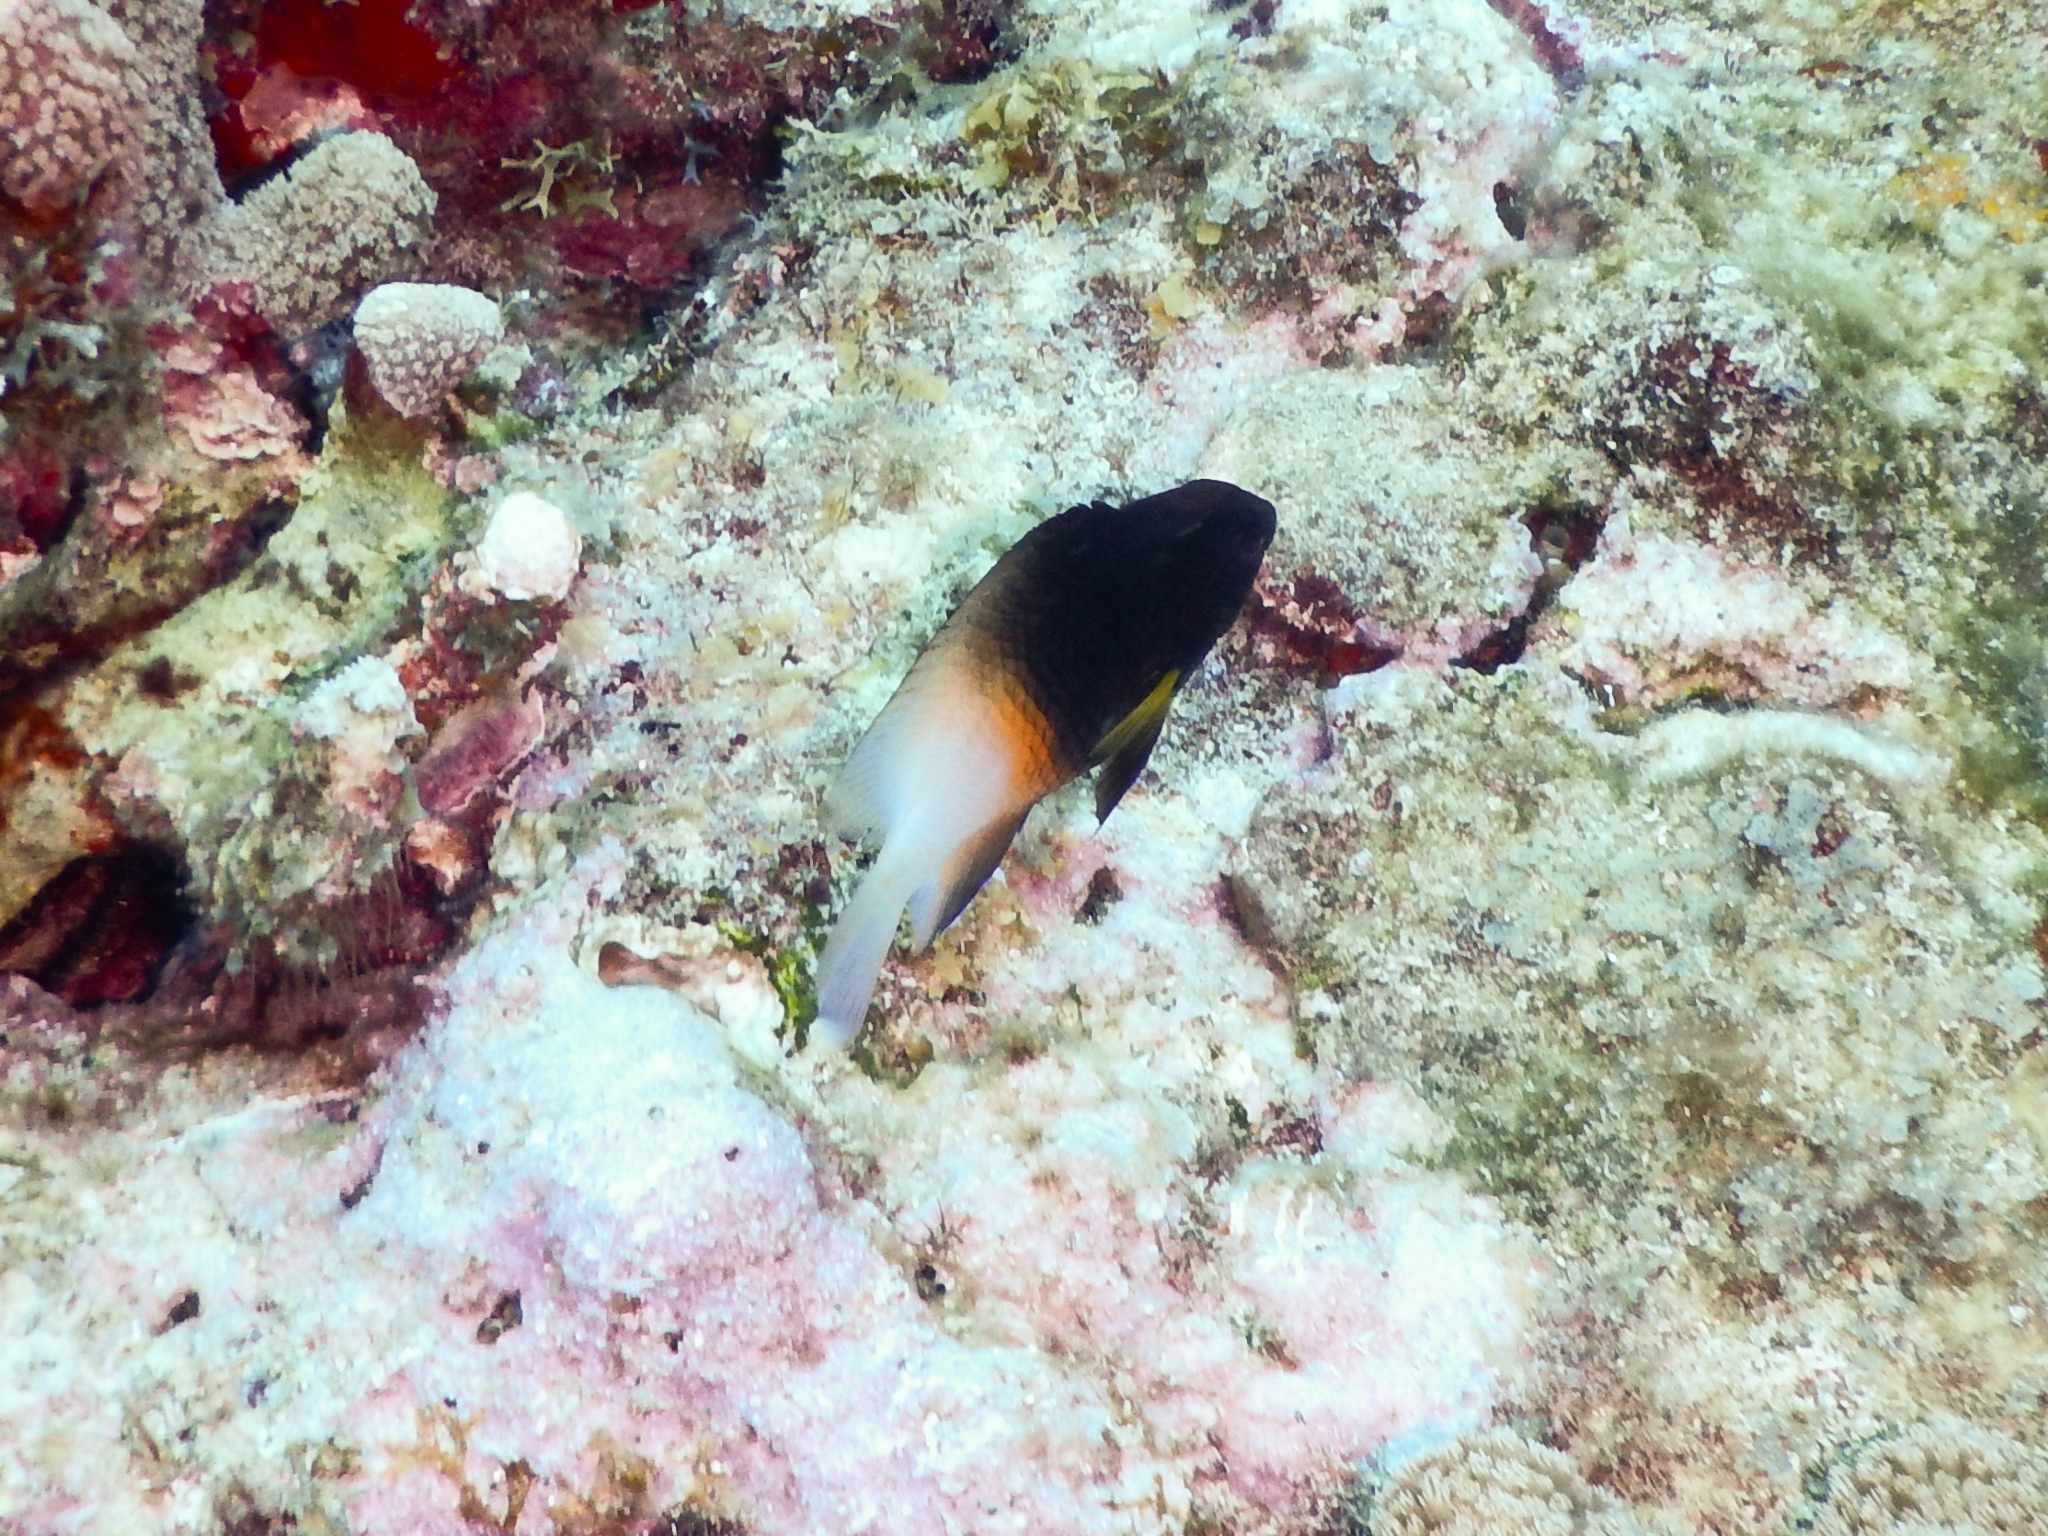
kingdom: Animalia
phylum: Chordata
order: Perciformes
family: Pomacentridae
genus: Stegastes
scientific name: Stegastes partitus
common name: Bicolor damselfish
